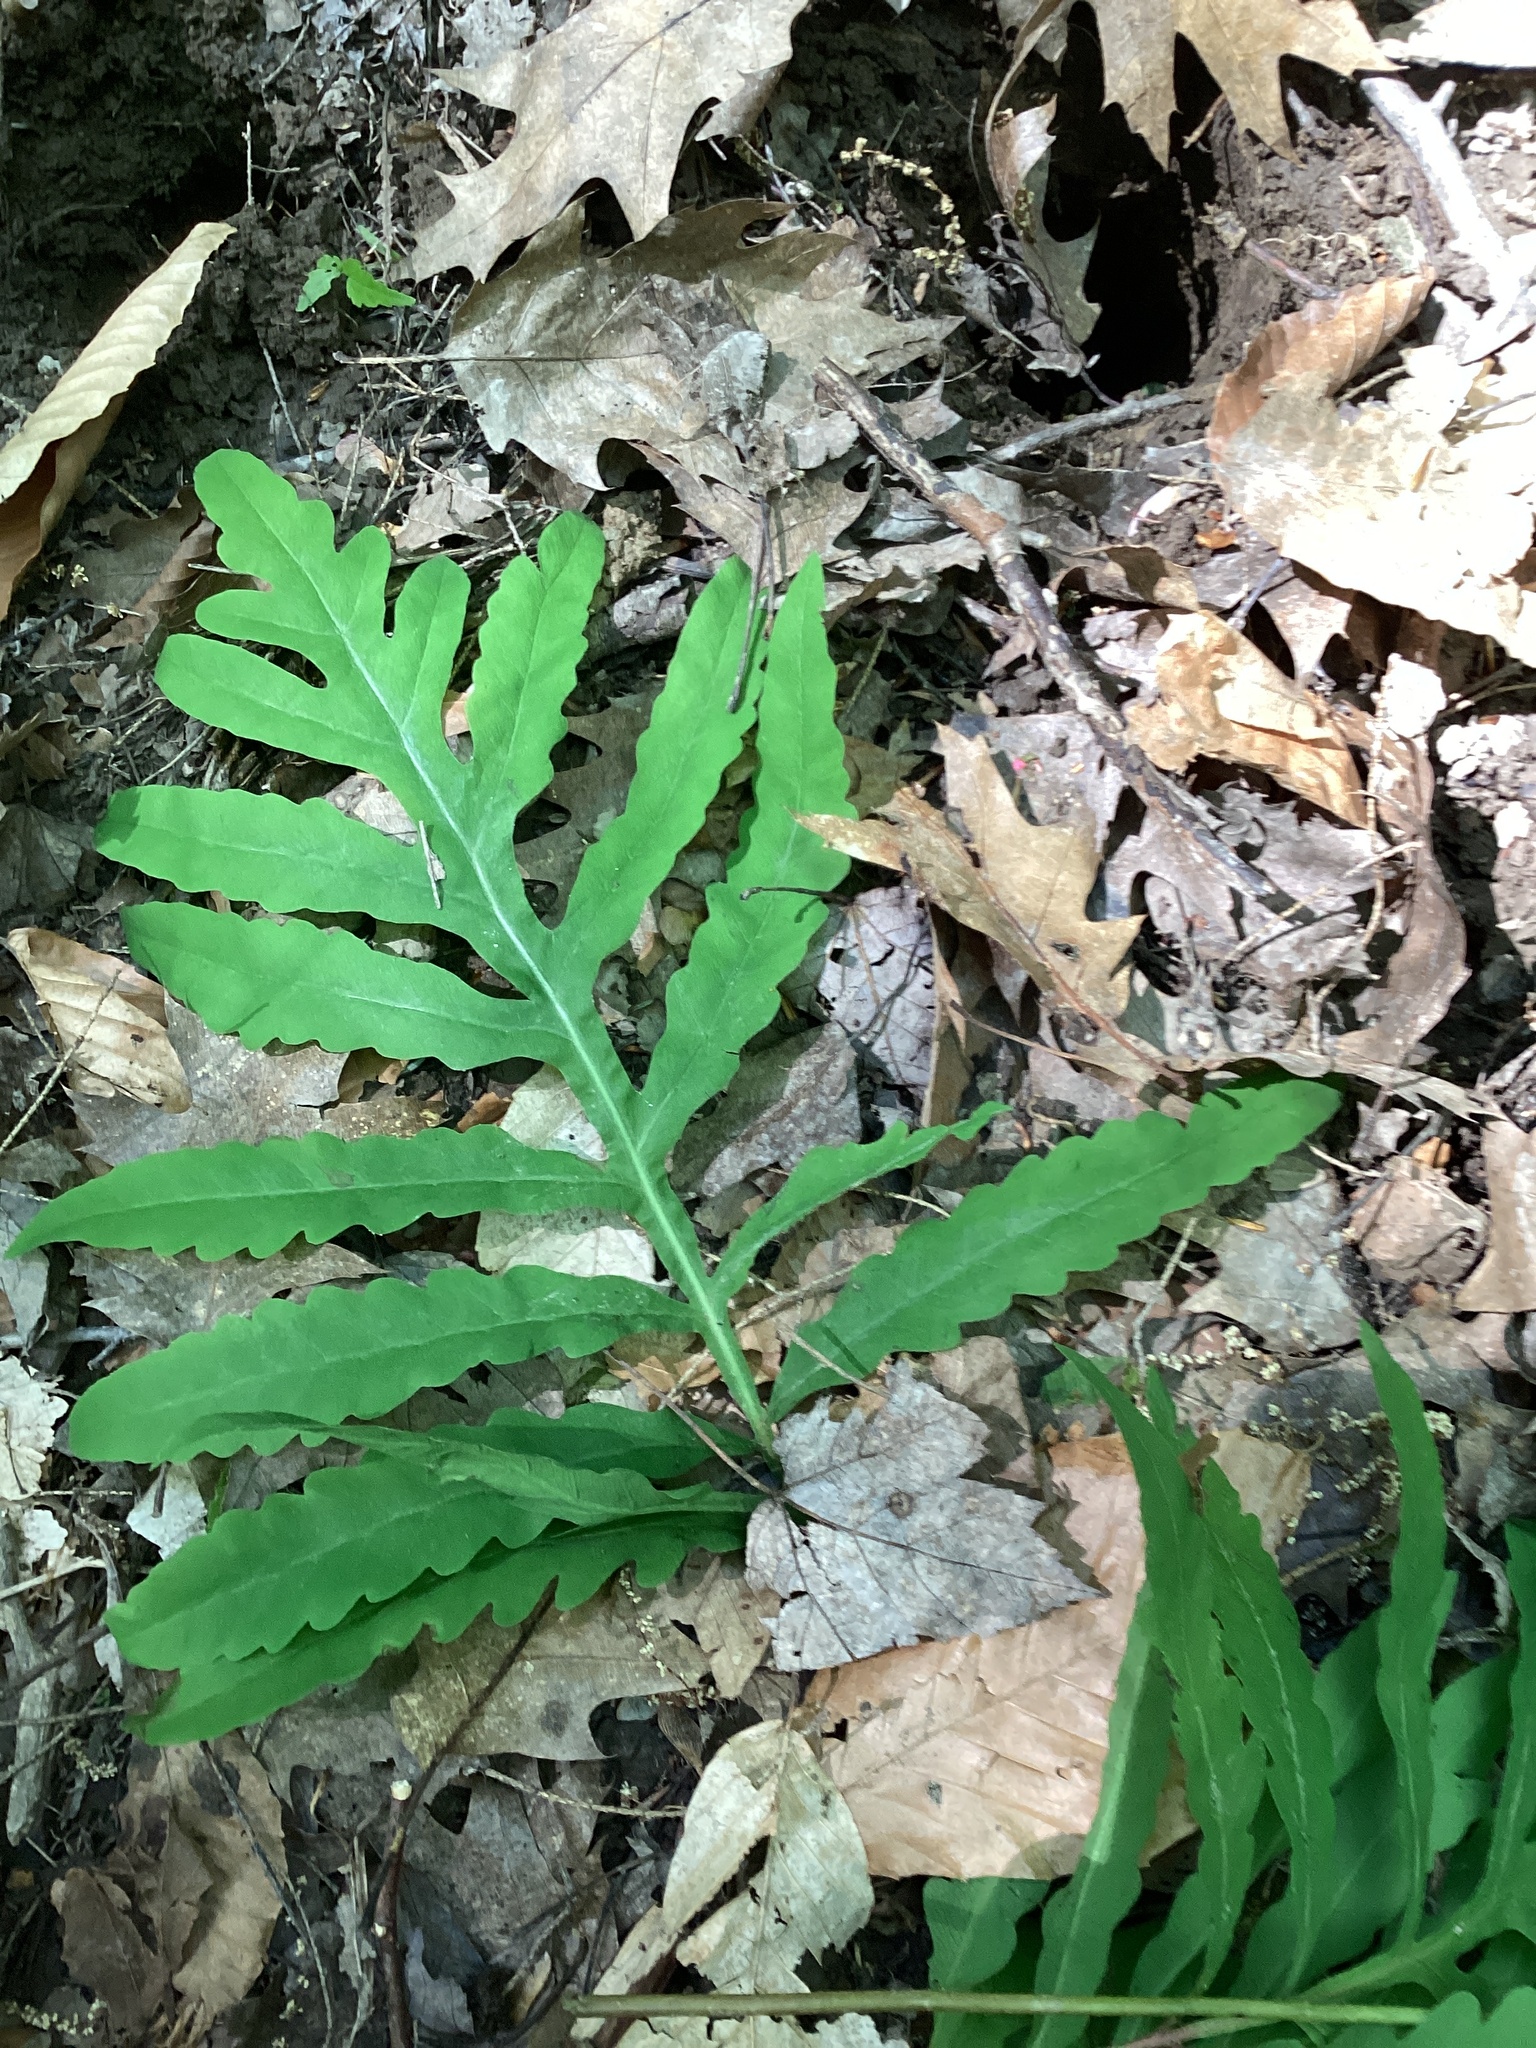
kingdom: Plantae
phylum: Tracheophyta
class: Polypodiopsida
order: Polypodiales
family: Onocleaceae
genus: Onoclea
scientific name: Onoclea sensibilis
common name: Sensitive fern
